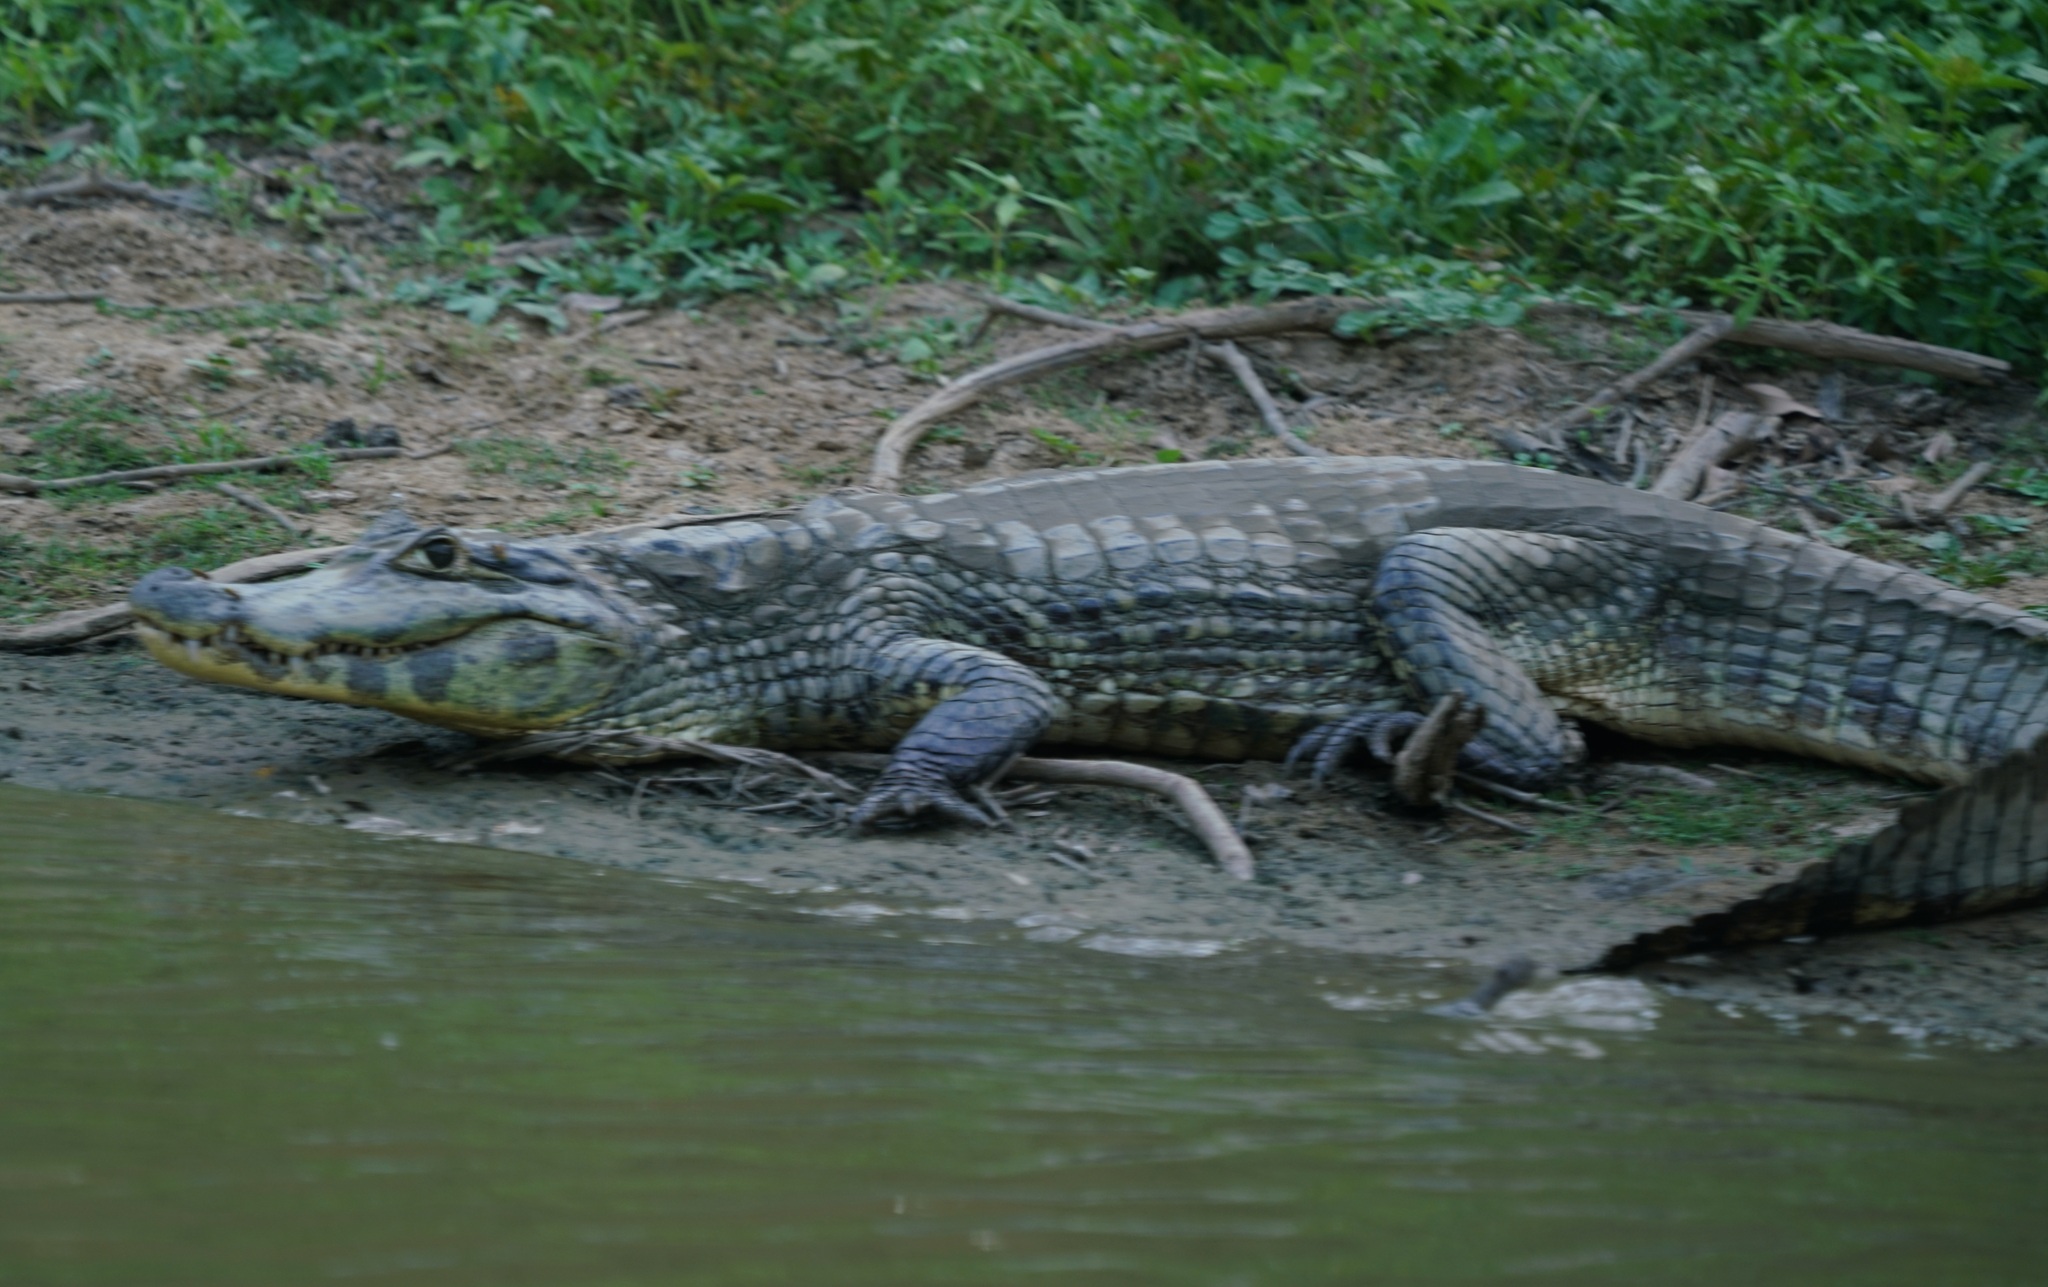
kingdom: Animalia
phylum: Chordata
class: Crocodylia
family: Alligatoridae
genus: Caiman
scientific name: Caiman yacare
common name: Yacare caiman
